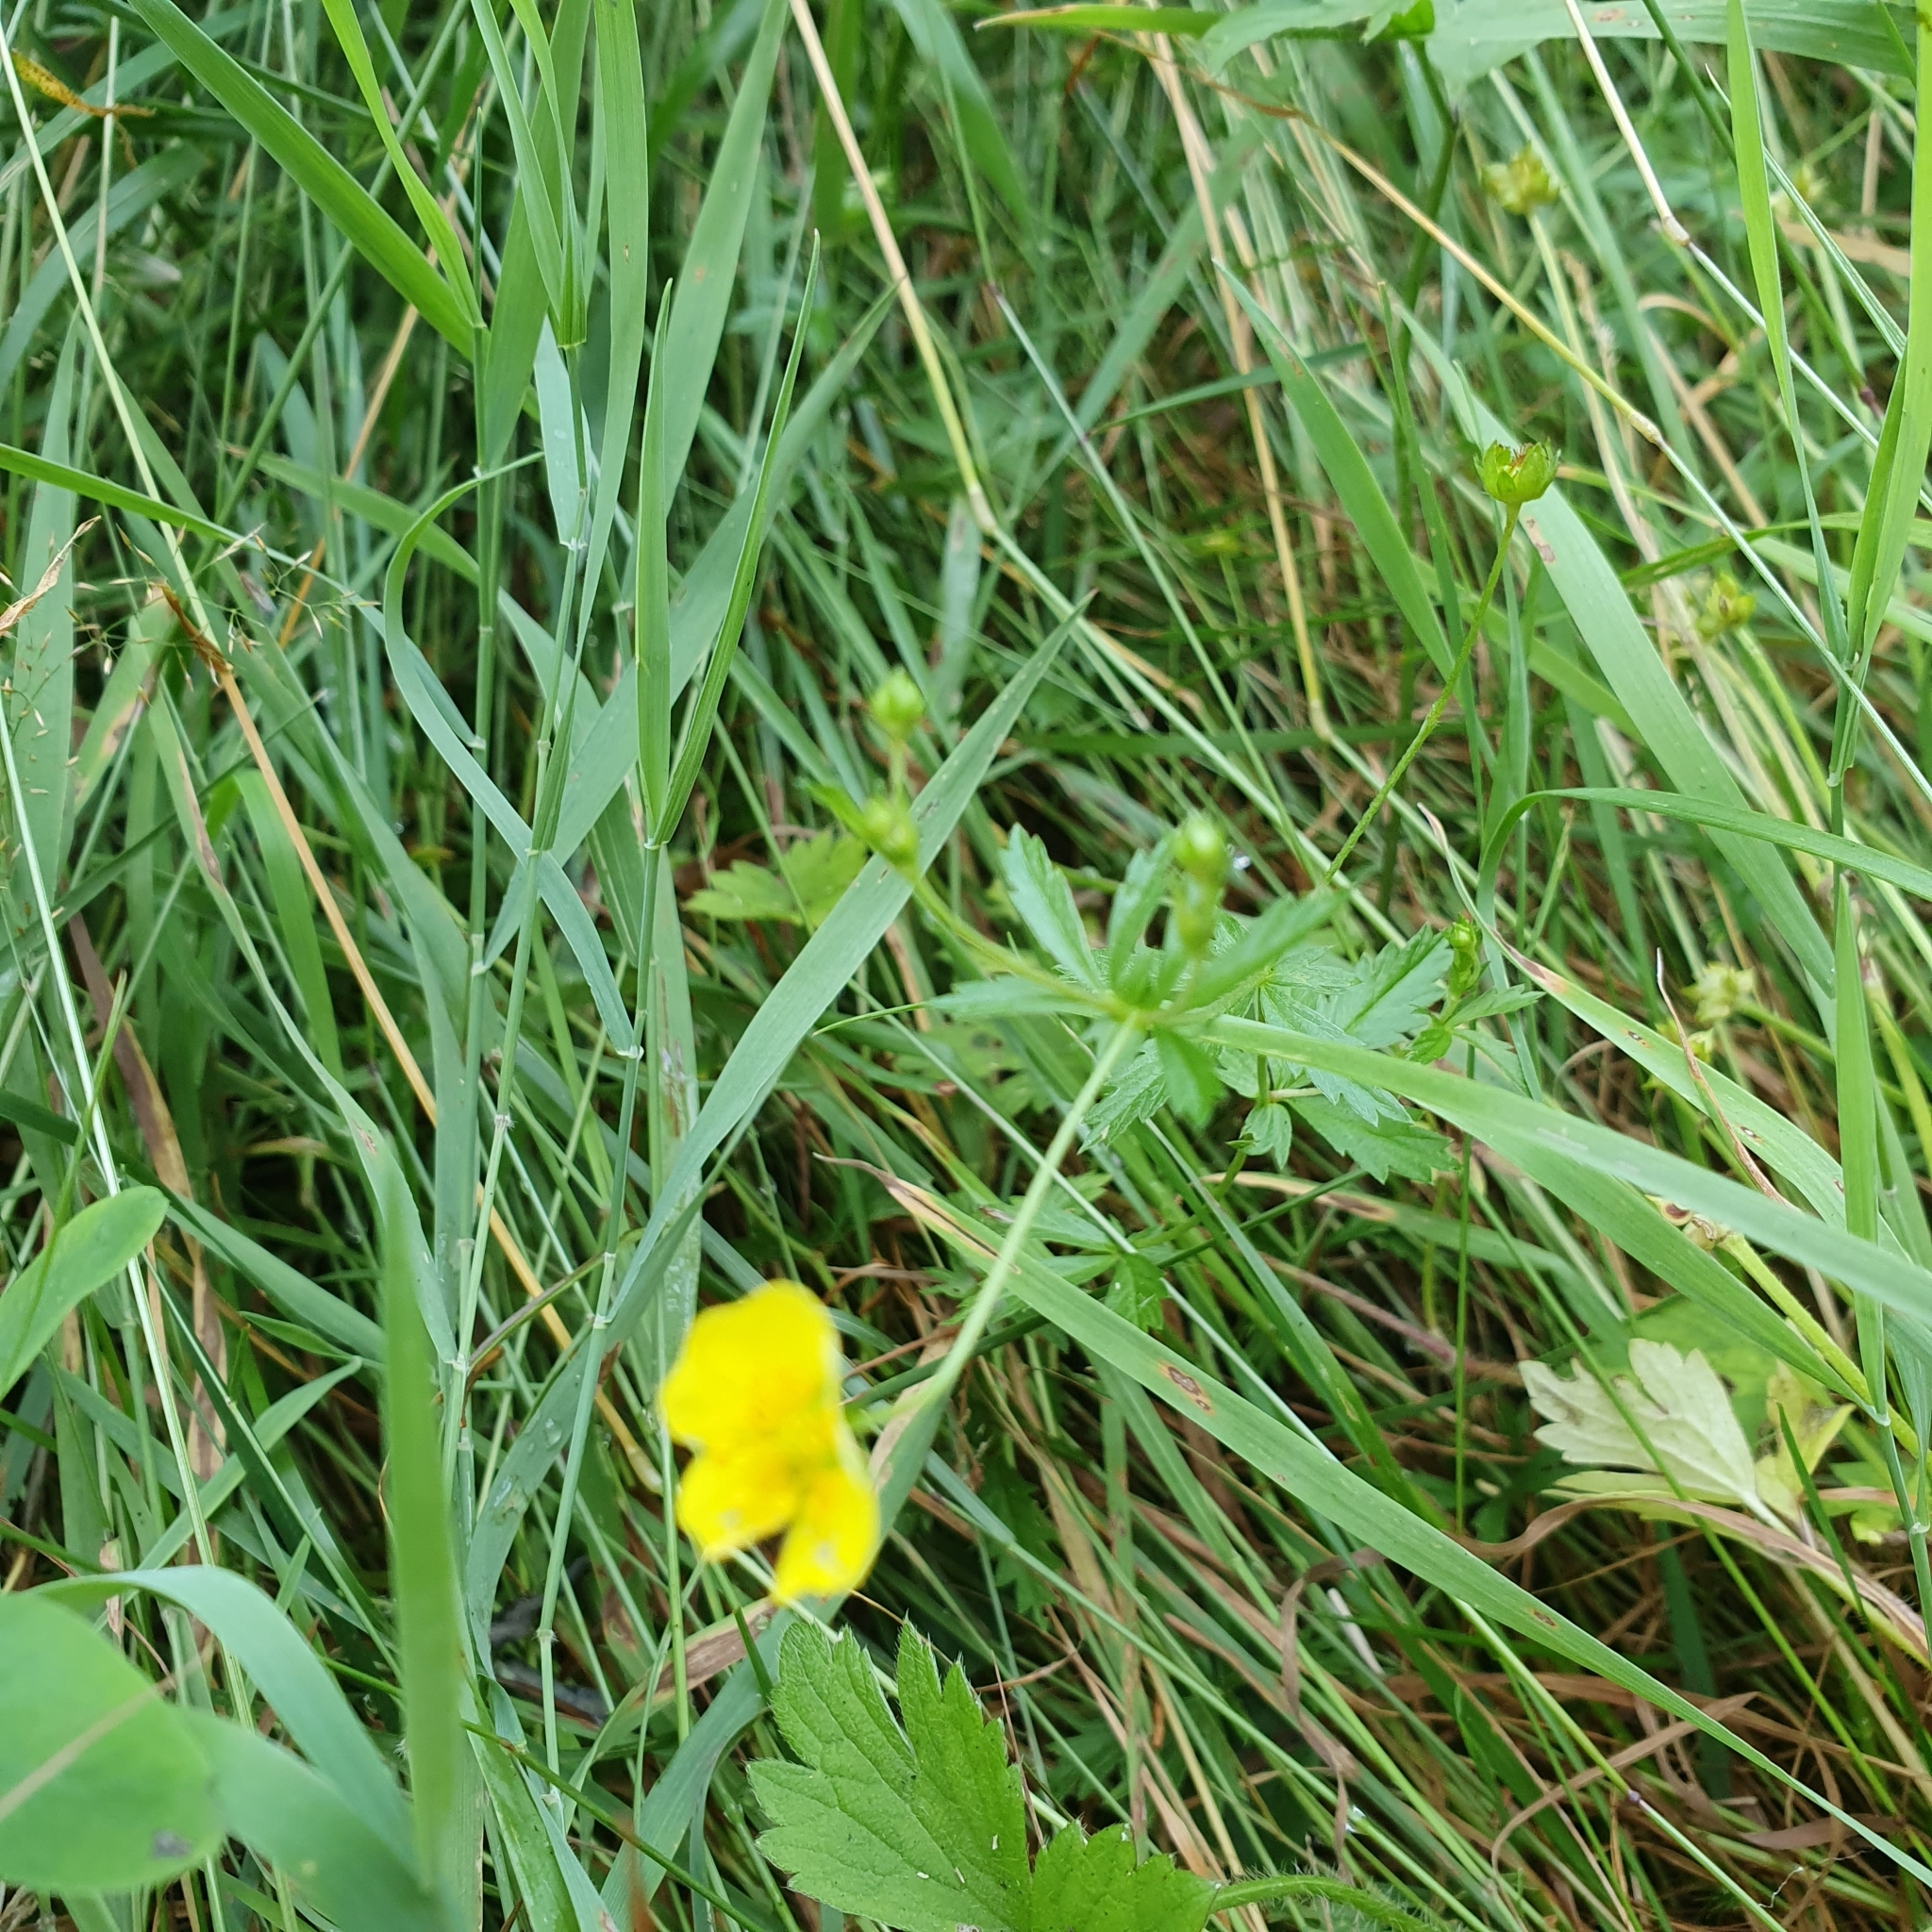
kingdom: Plantae
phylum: Tracheophyta
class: Magnoliopsida
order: Rosales
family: Rosaceae
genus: Potentilla
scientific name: Potentilla erecta
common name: Tormentil
